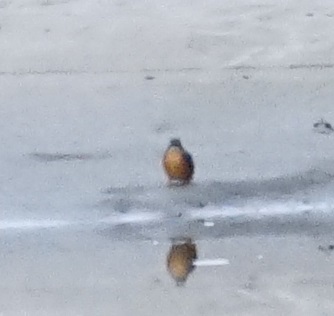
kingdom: Animalia
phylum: Chordata
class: Aves
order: Coraciiformes
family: Alcedinidae
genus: Ceyx
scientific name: Ceyx azureus
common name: Azure kingfisher
